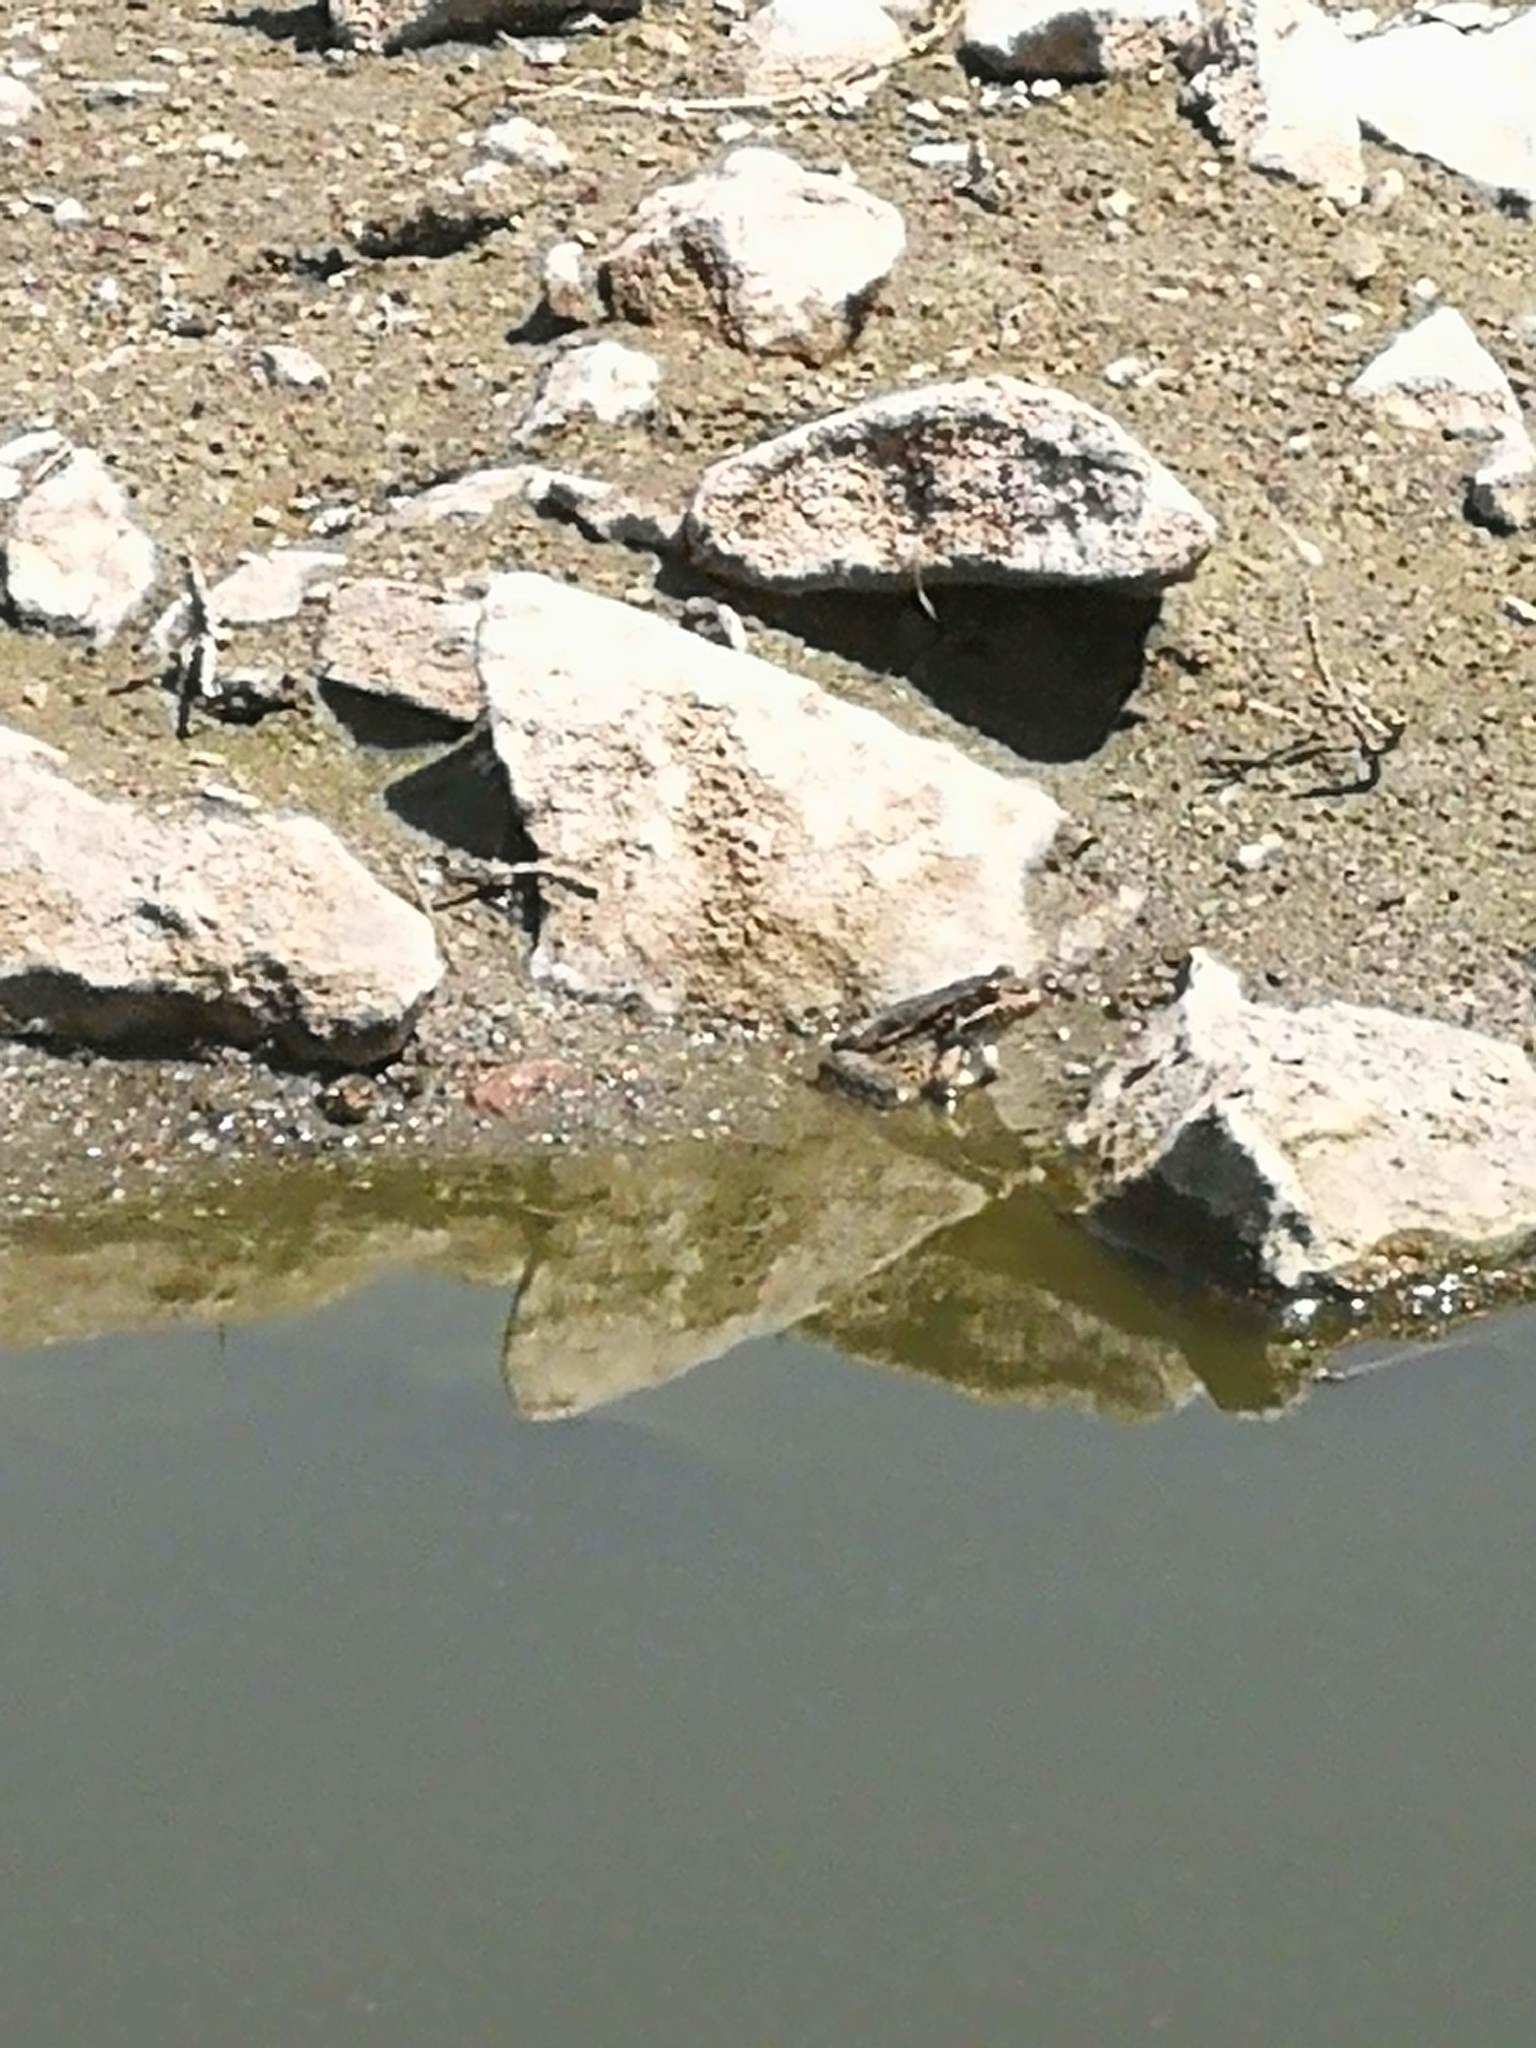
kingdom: Animalia
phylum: Chordata
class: Amphibia
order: Anura
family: Ranidae
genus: Pelophylax
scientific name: Pelophylax ridibundus
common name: Marsh frog
